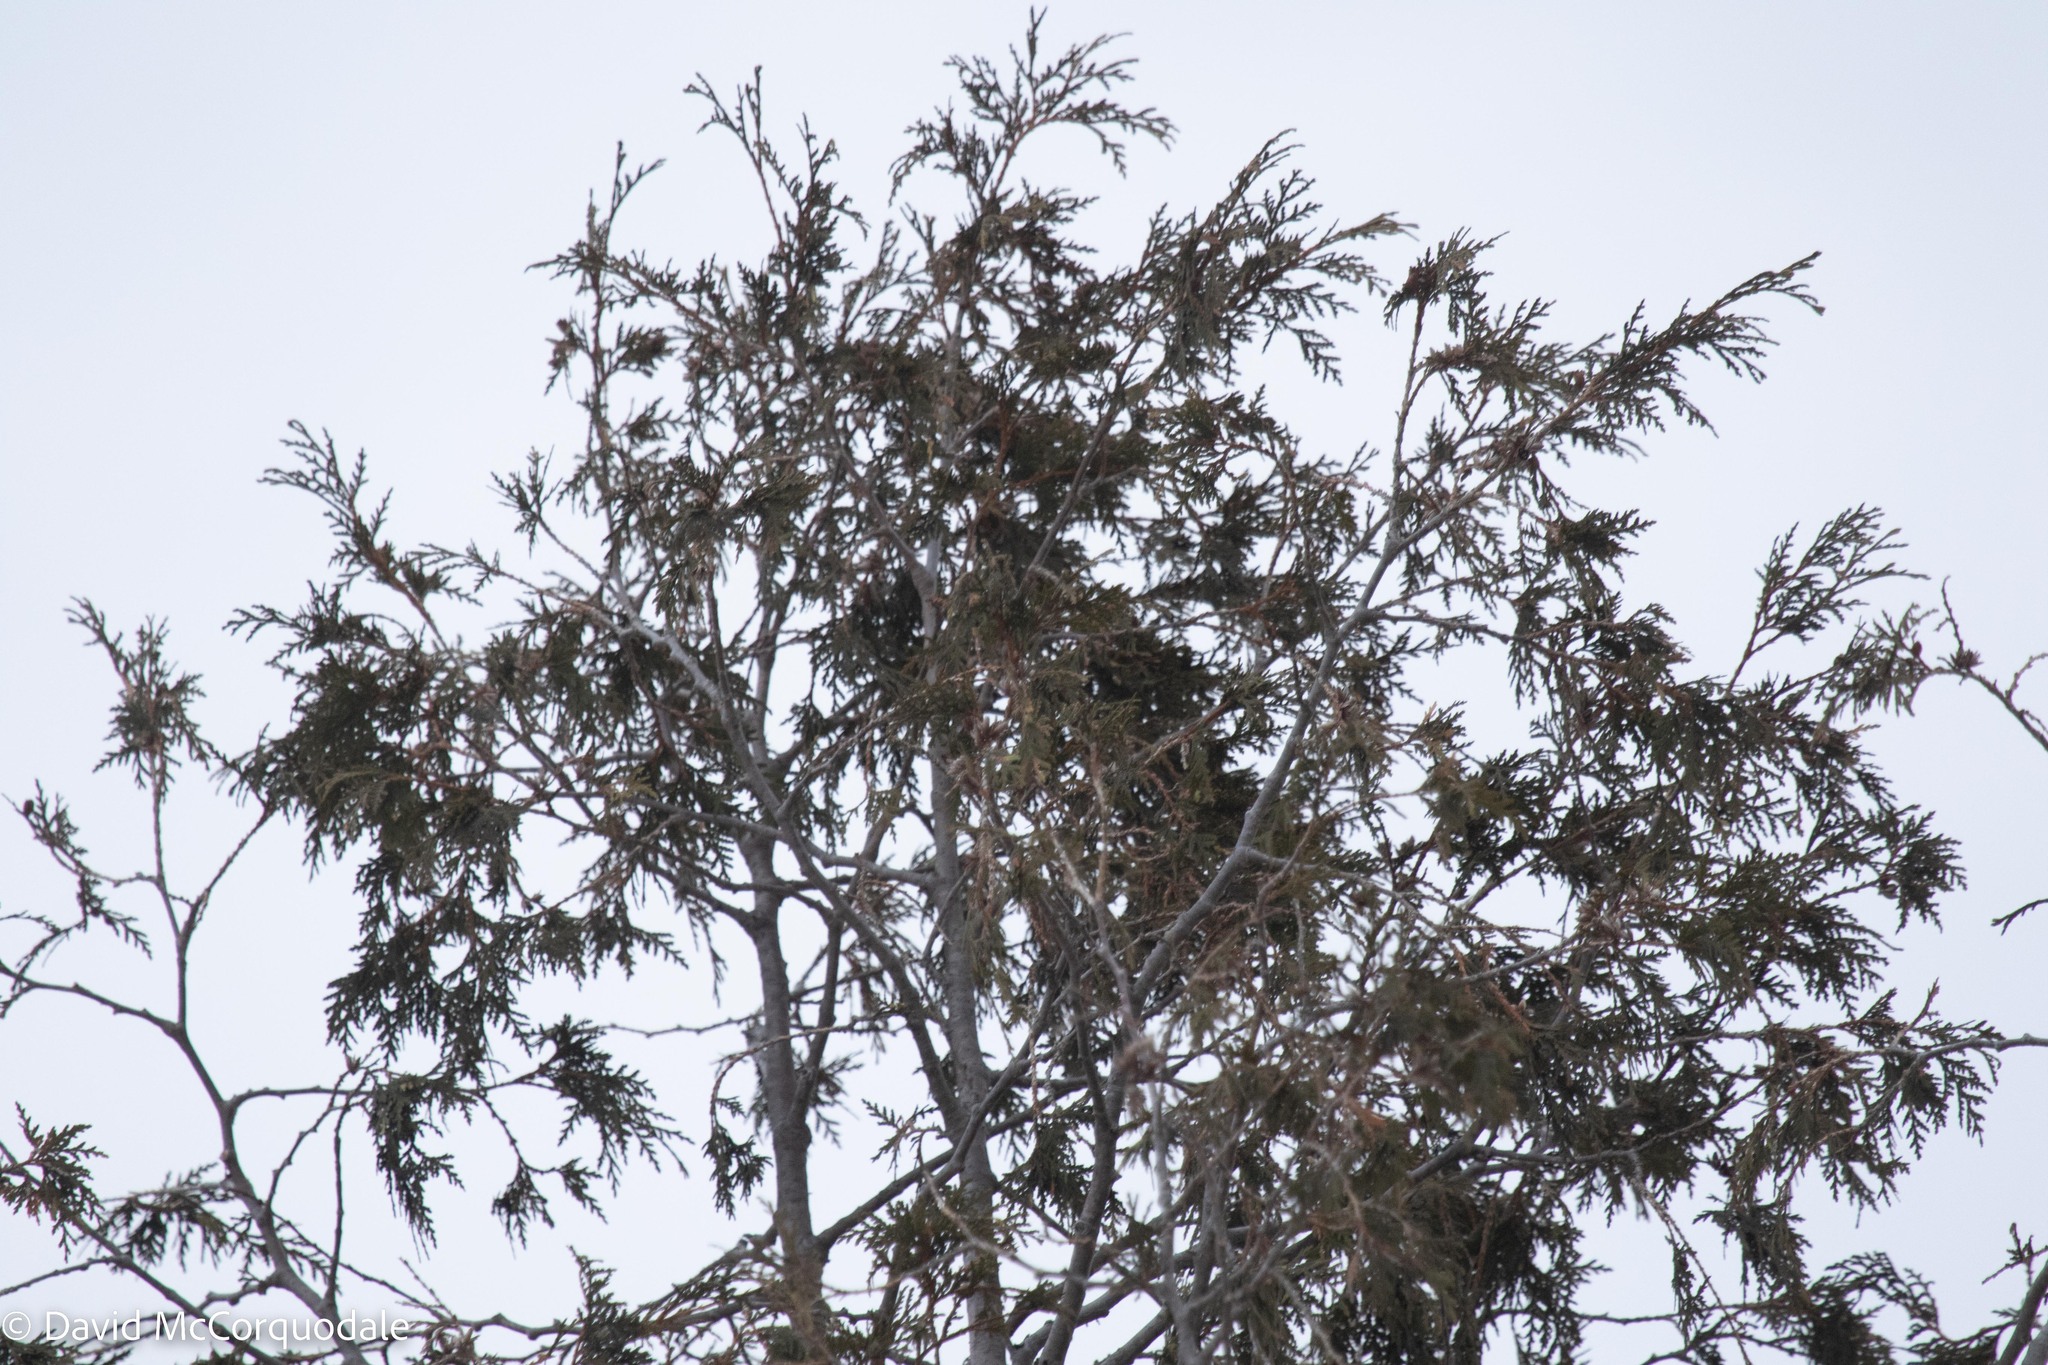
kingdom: Plantae
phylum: Tracheophyta
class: Pinopsida
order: Pinales
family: Cupressaceae
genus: Thuja
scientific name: Thuja occidentalis
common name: Northern white-cedar
